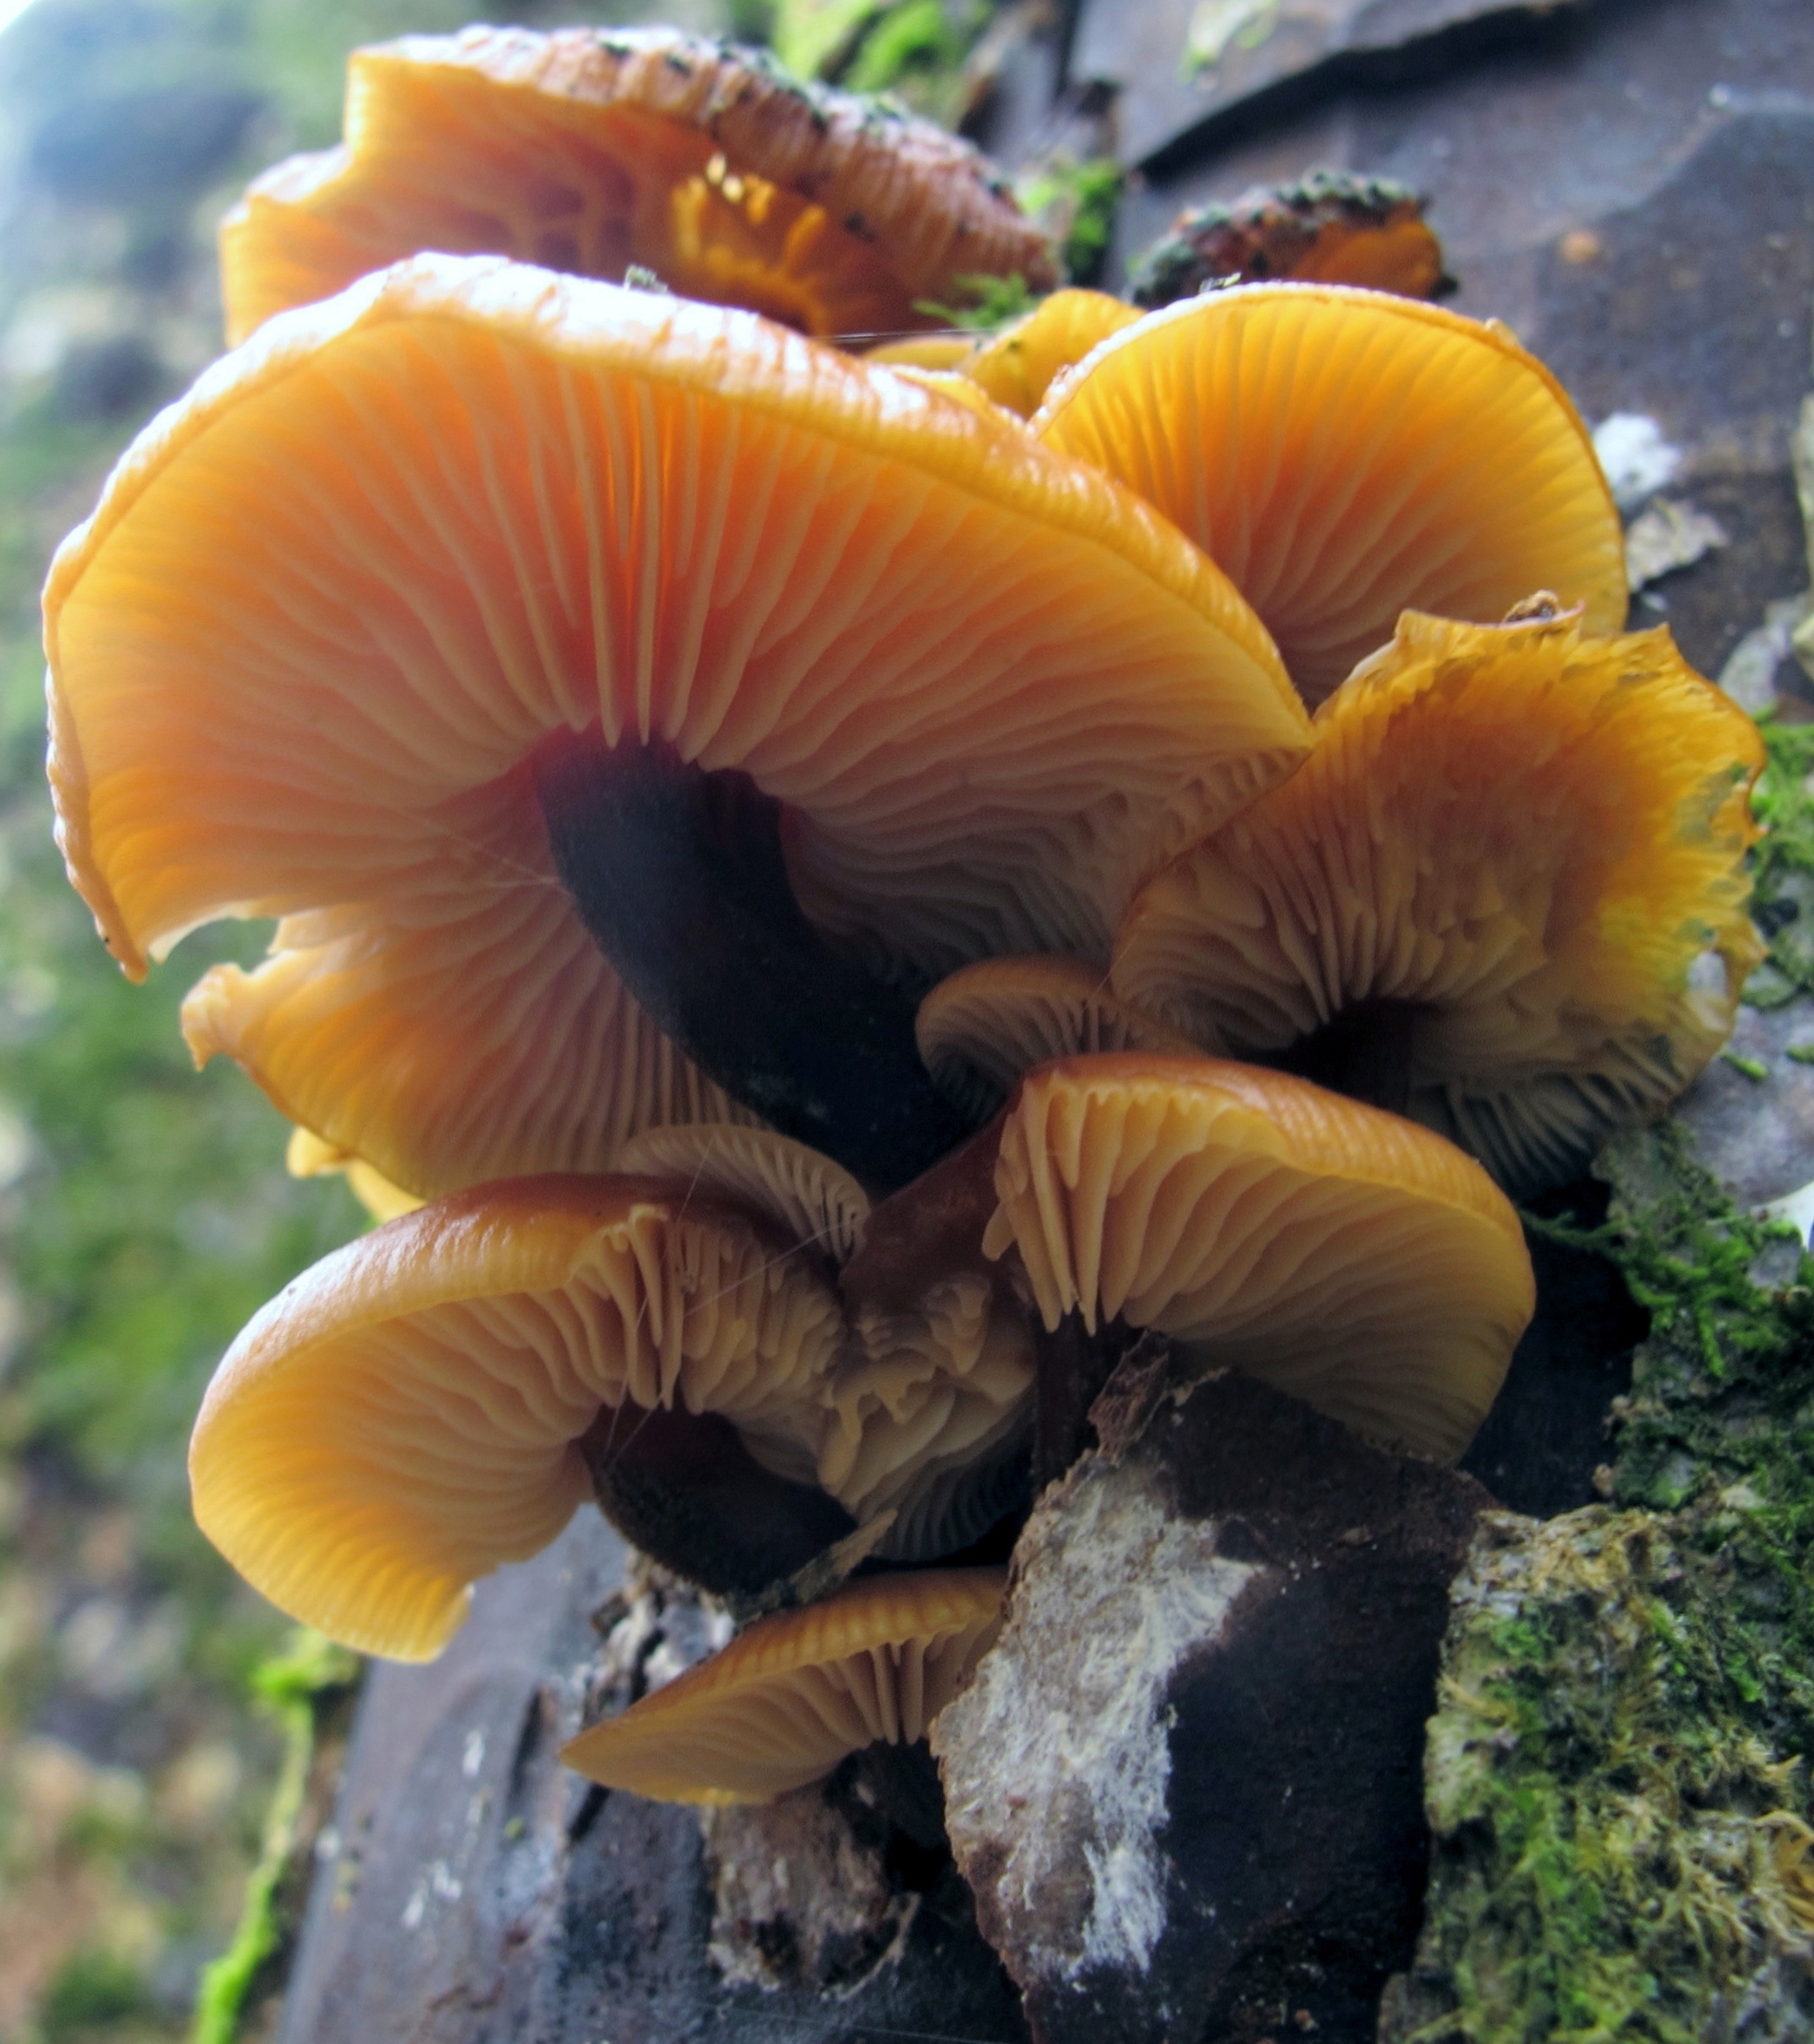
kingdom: Fungi
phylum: Basidiomycota
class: Agaricomycetes
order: Agaricales
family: Physalacriaceae
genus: Flammulina
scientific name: Flammulina velutipes
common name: Velvet shank
